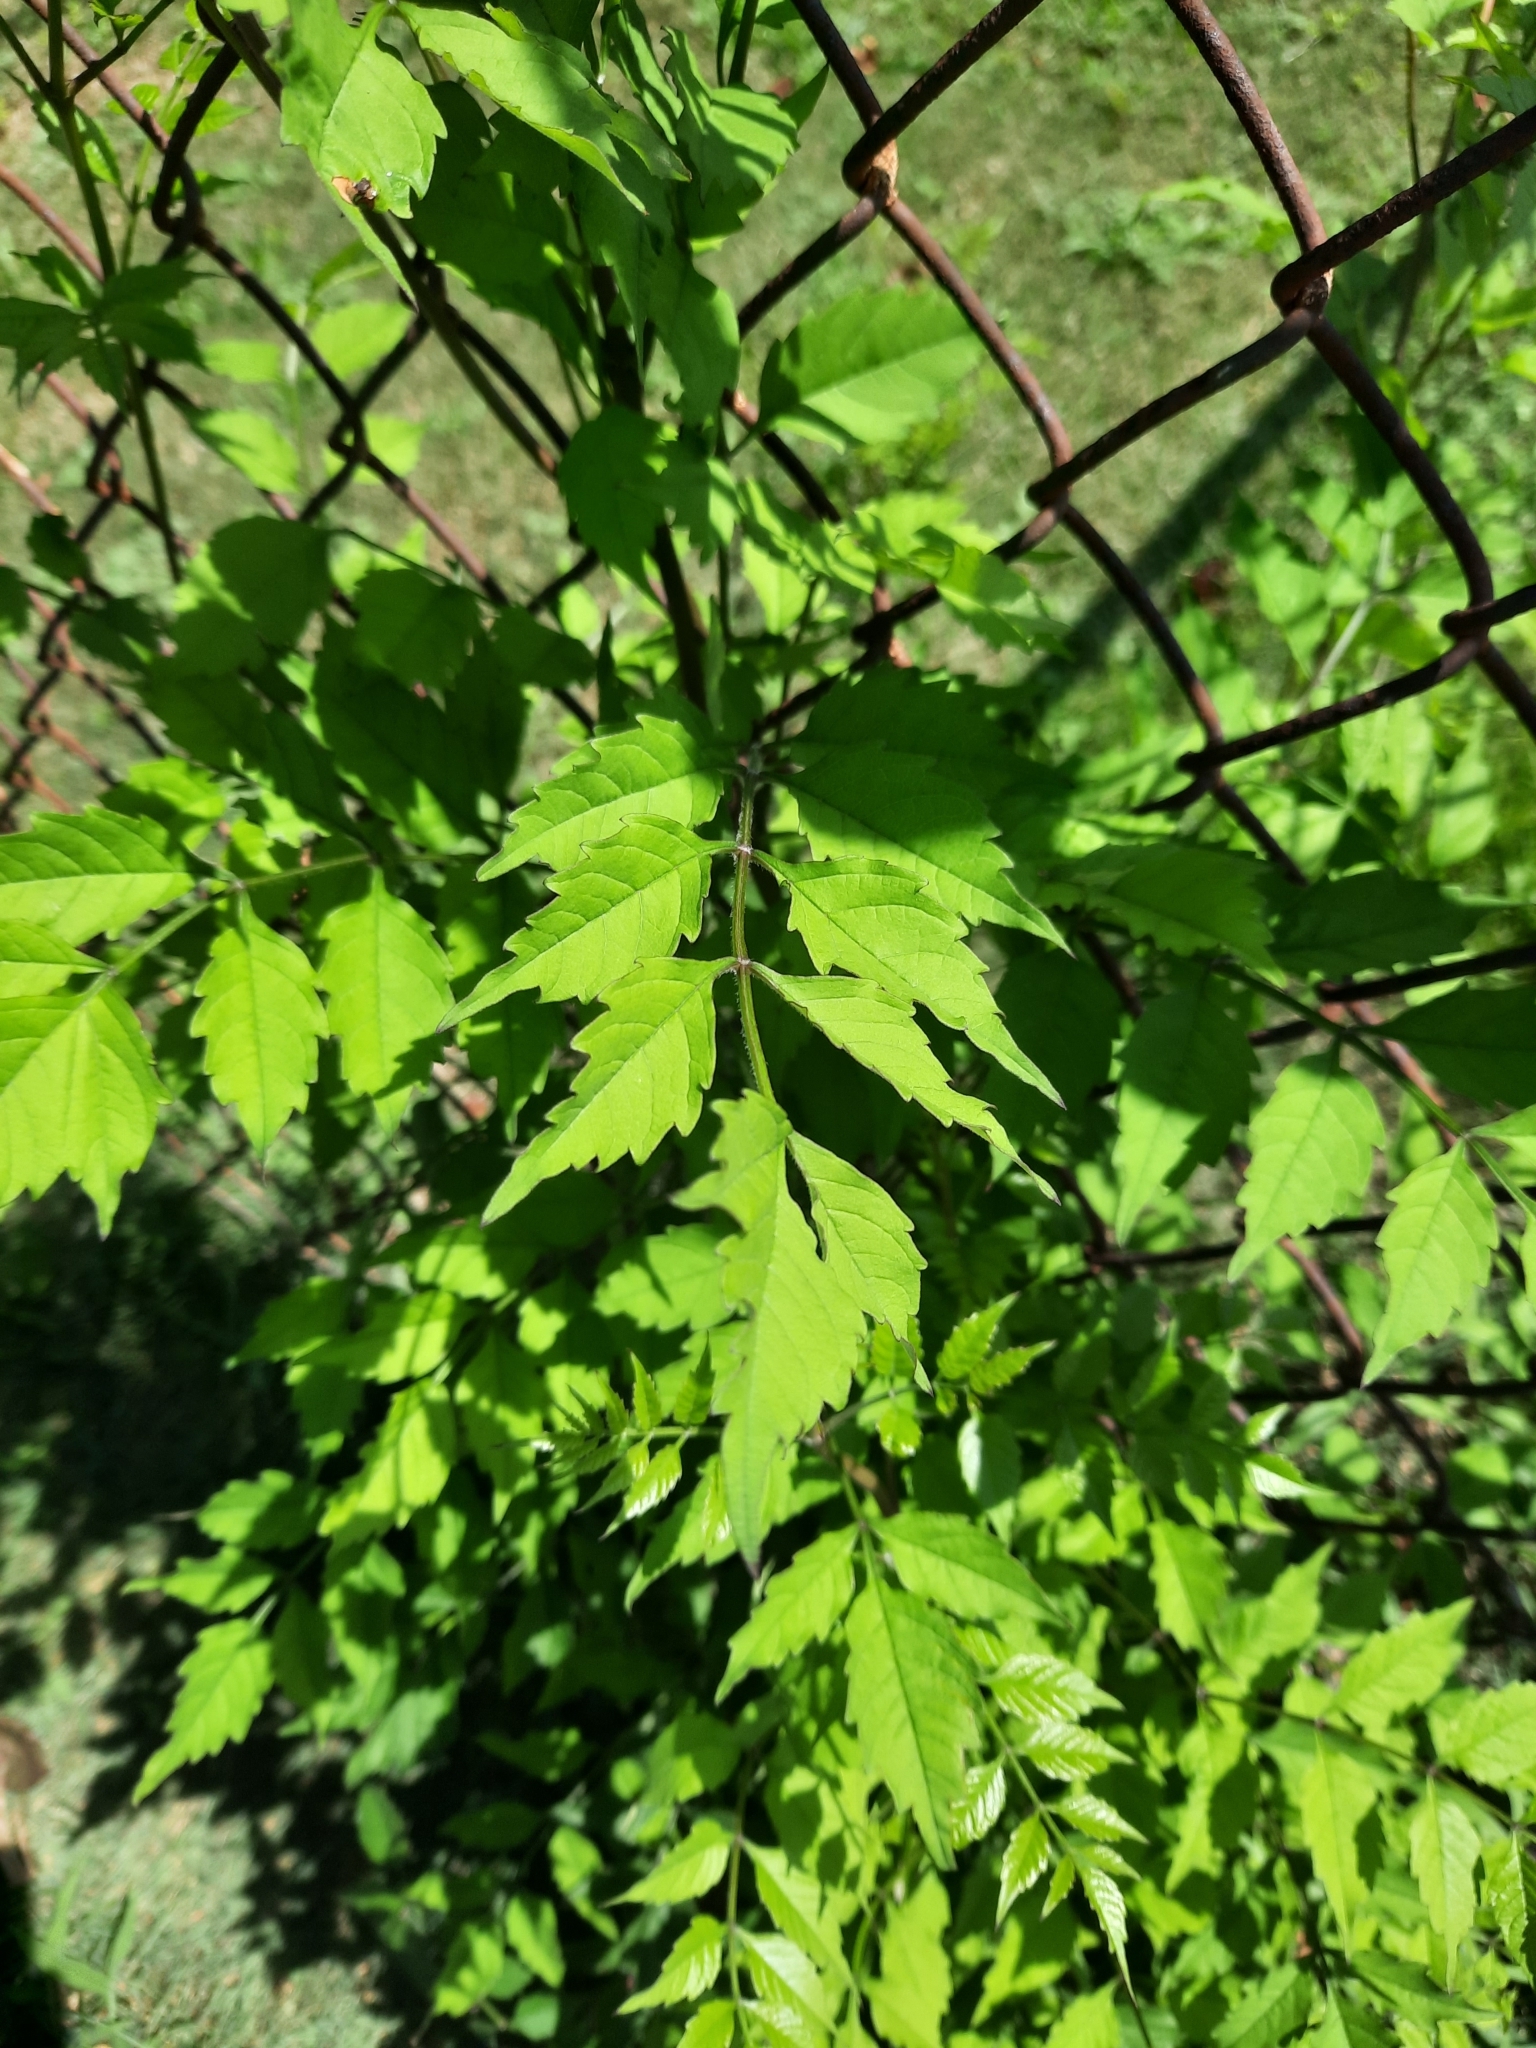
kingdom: Plantae
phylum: Tracheophyta
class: Magnoliopsida
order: Lamiales
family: Bignoniaceae
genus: Campsis
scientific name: Campsis radicans
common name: Trumpet-creeper
